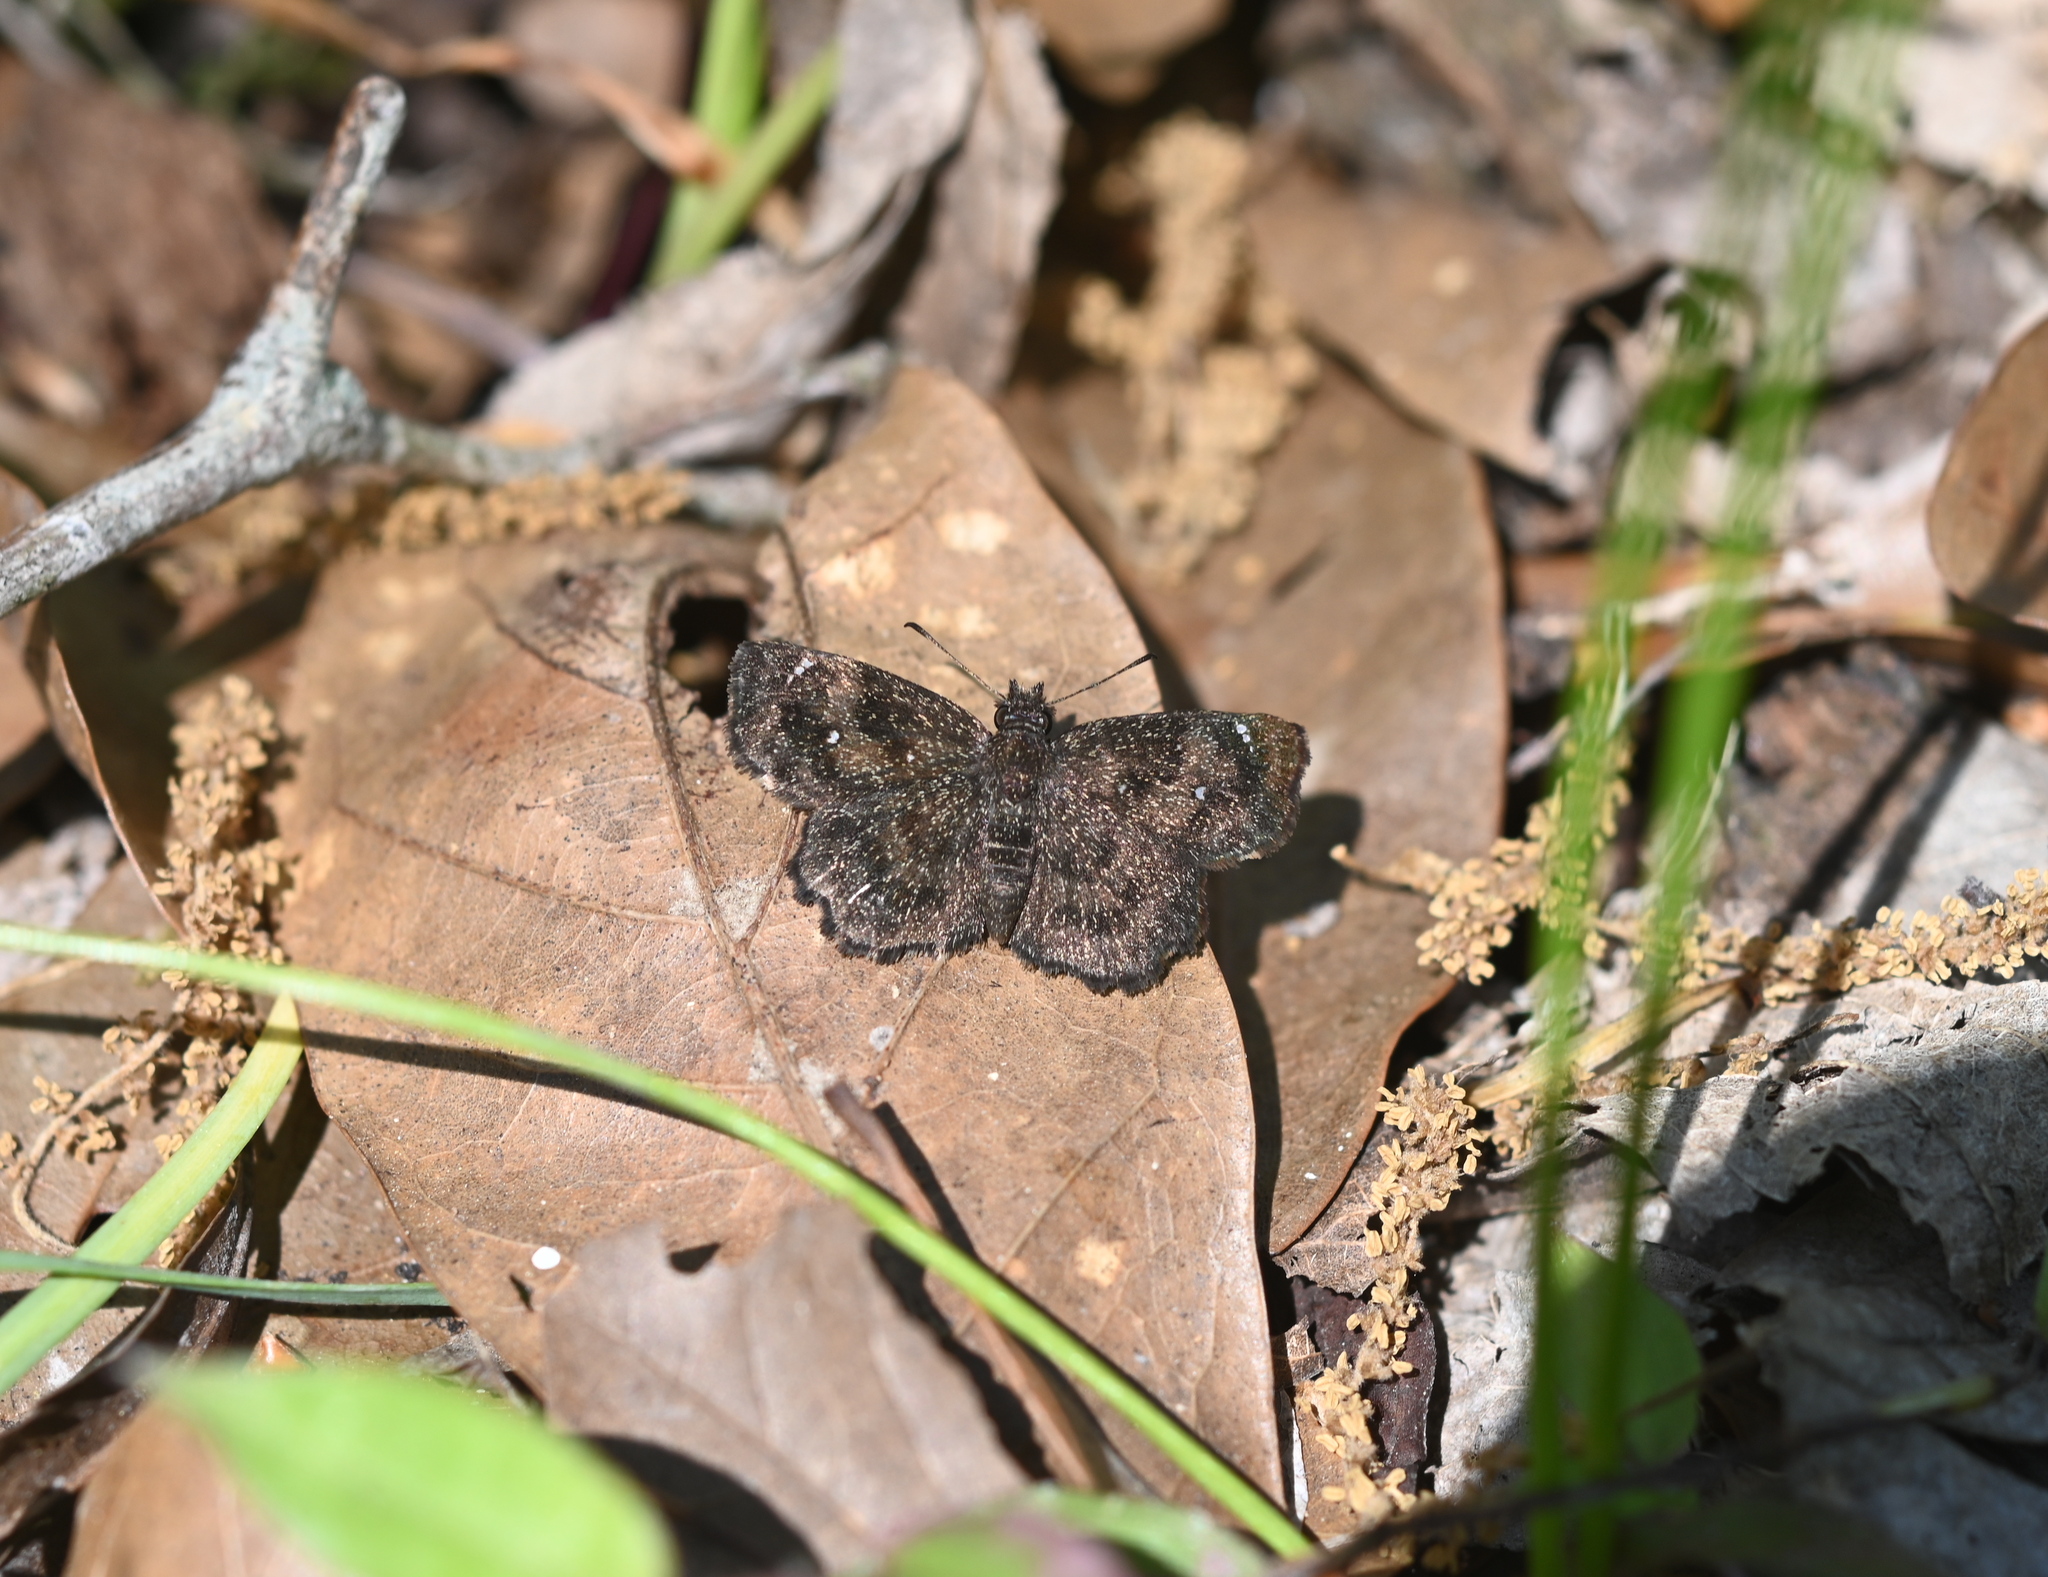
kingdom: Animalia
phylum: Arthropoda
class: Insecta
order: Lepidoptera
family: Hesperiidae
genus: Staphylus
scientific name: Staphylus mazans
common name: Mazans scallopwing
